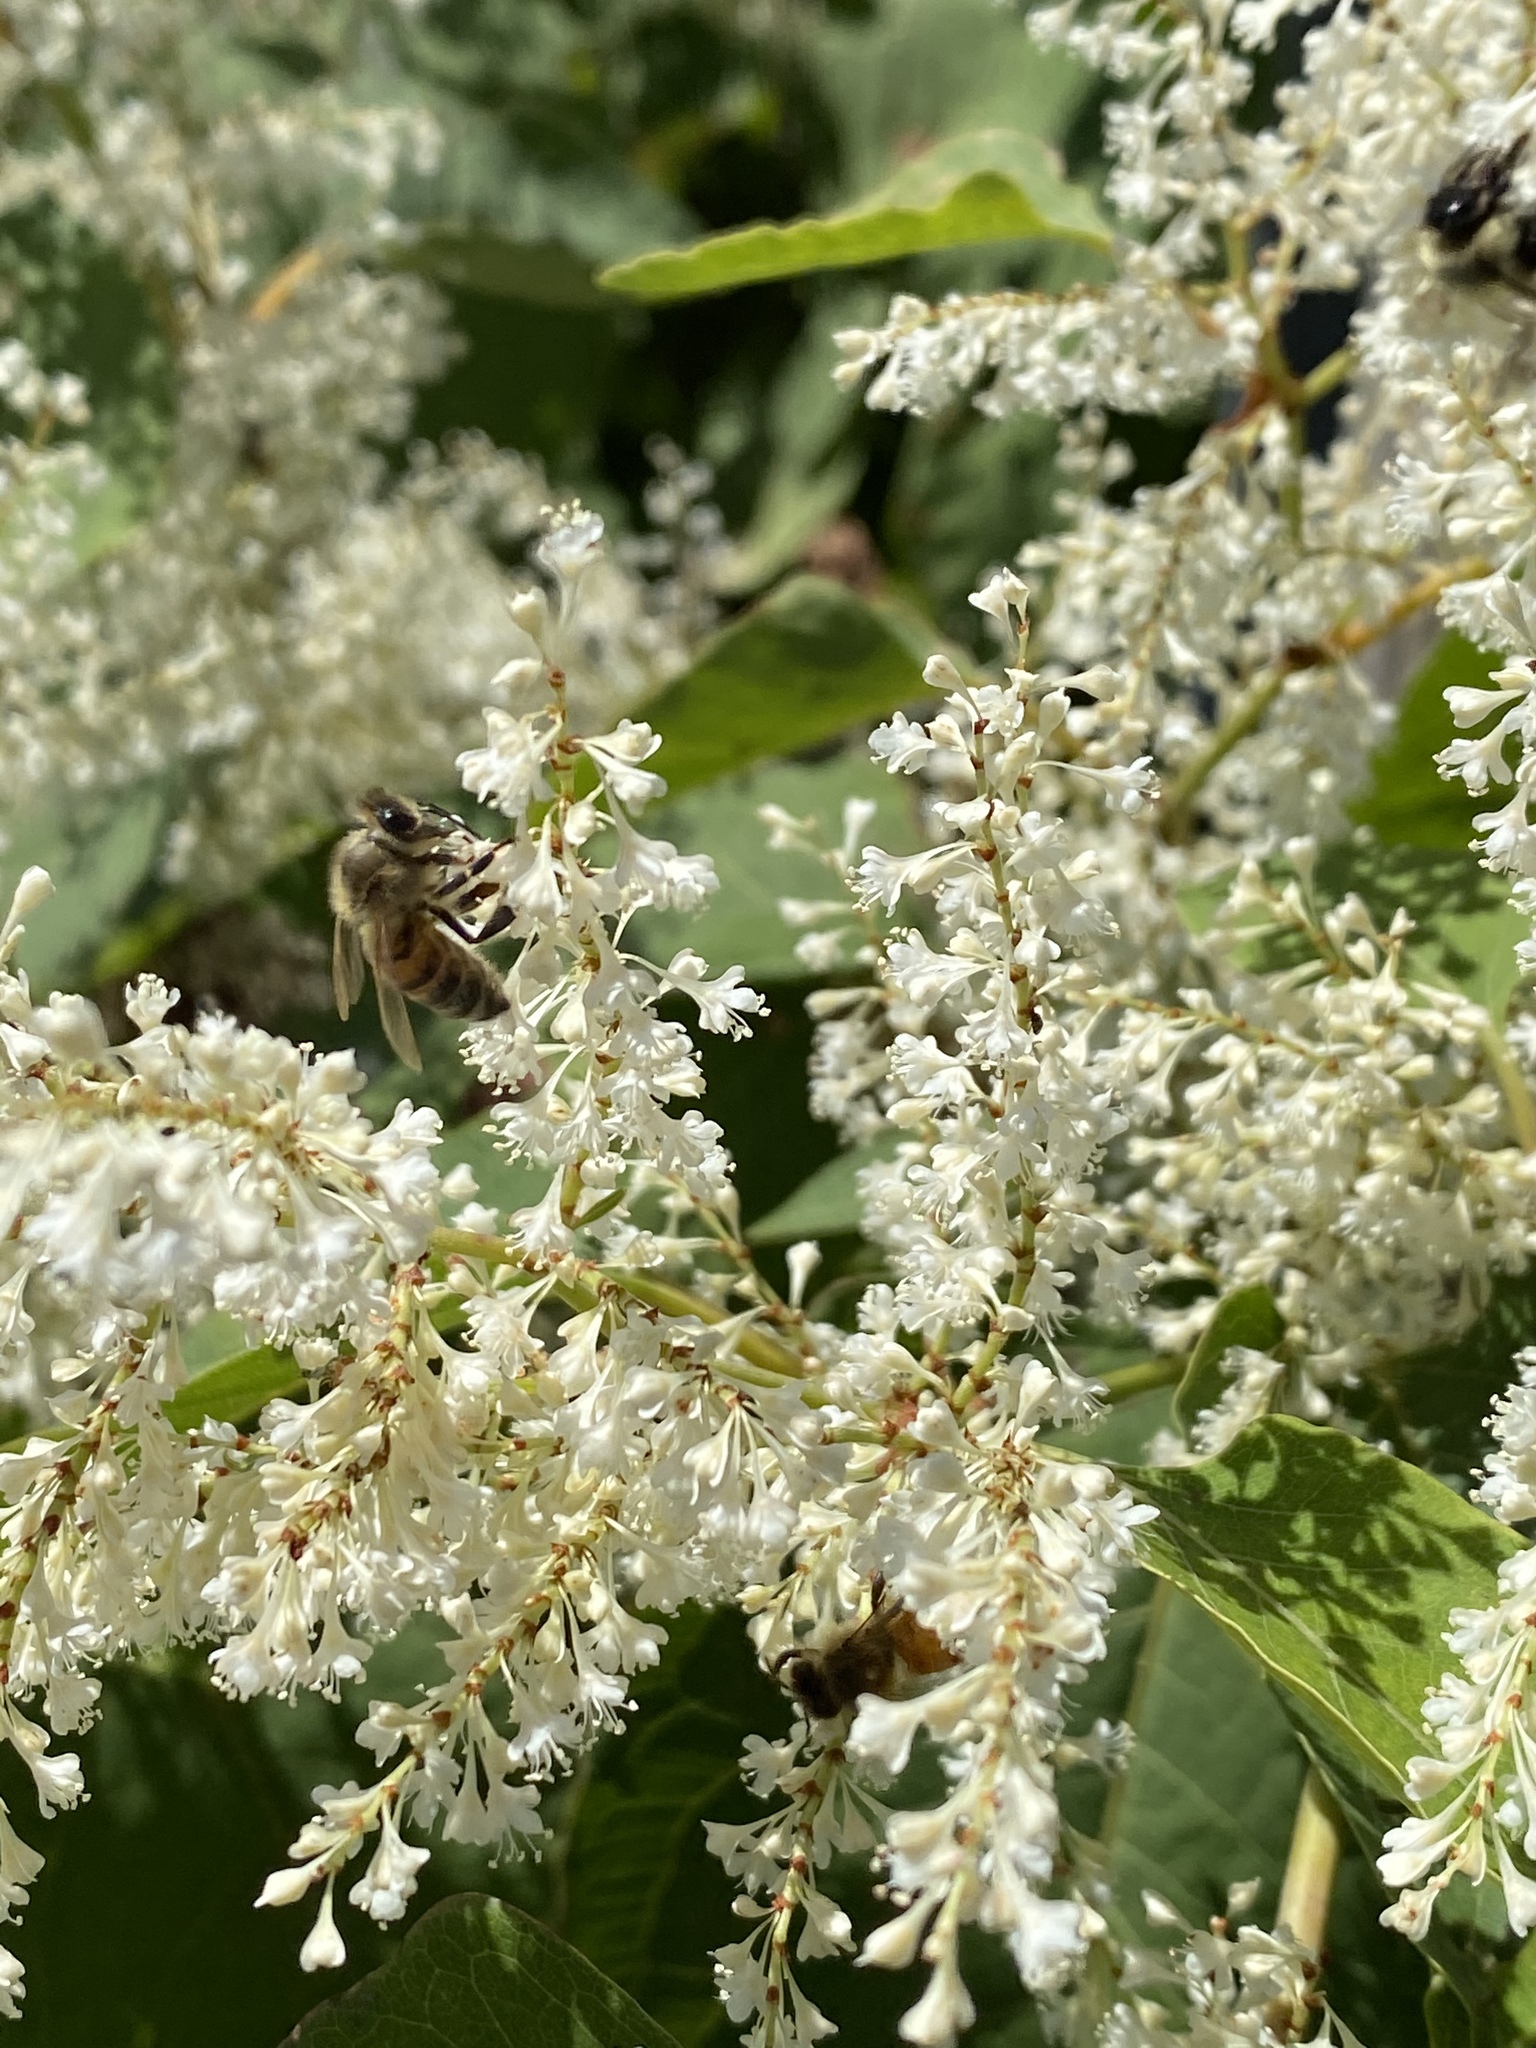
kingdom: Animalia
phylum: Arthropoda
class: Insecta
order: Hymenoptera
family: Apidae
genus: Apis
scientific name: Apis mellifera
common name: Honey bee
